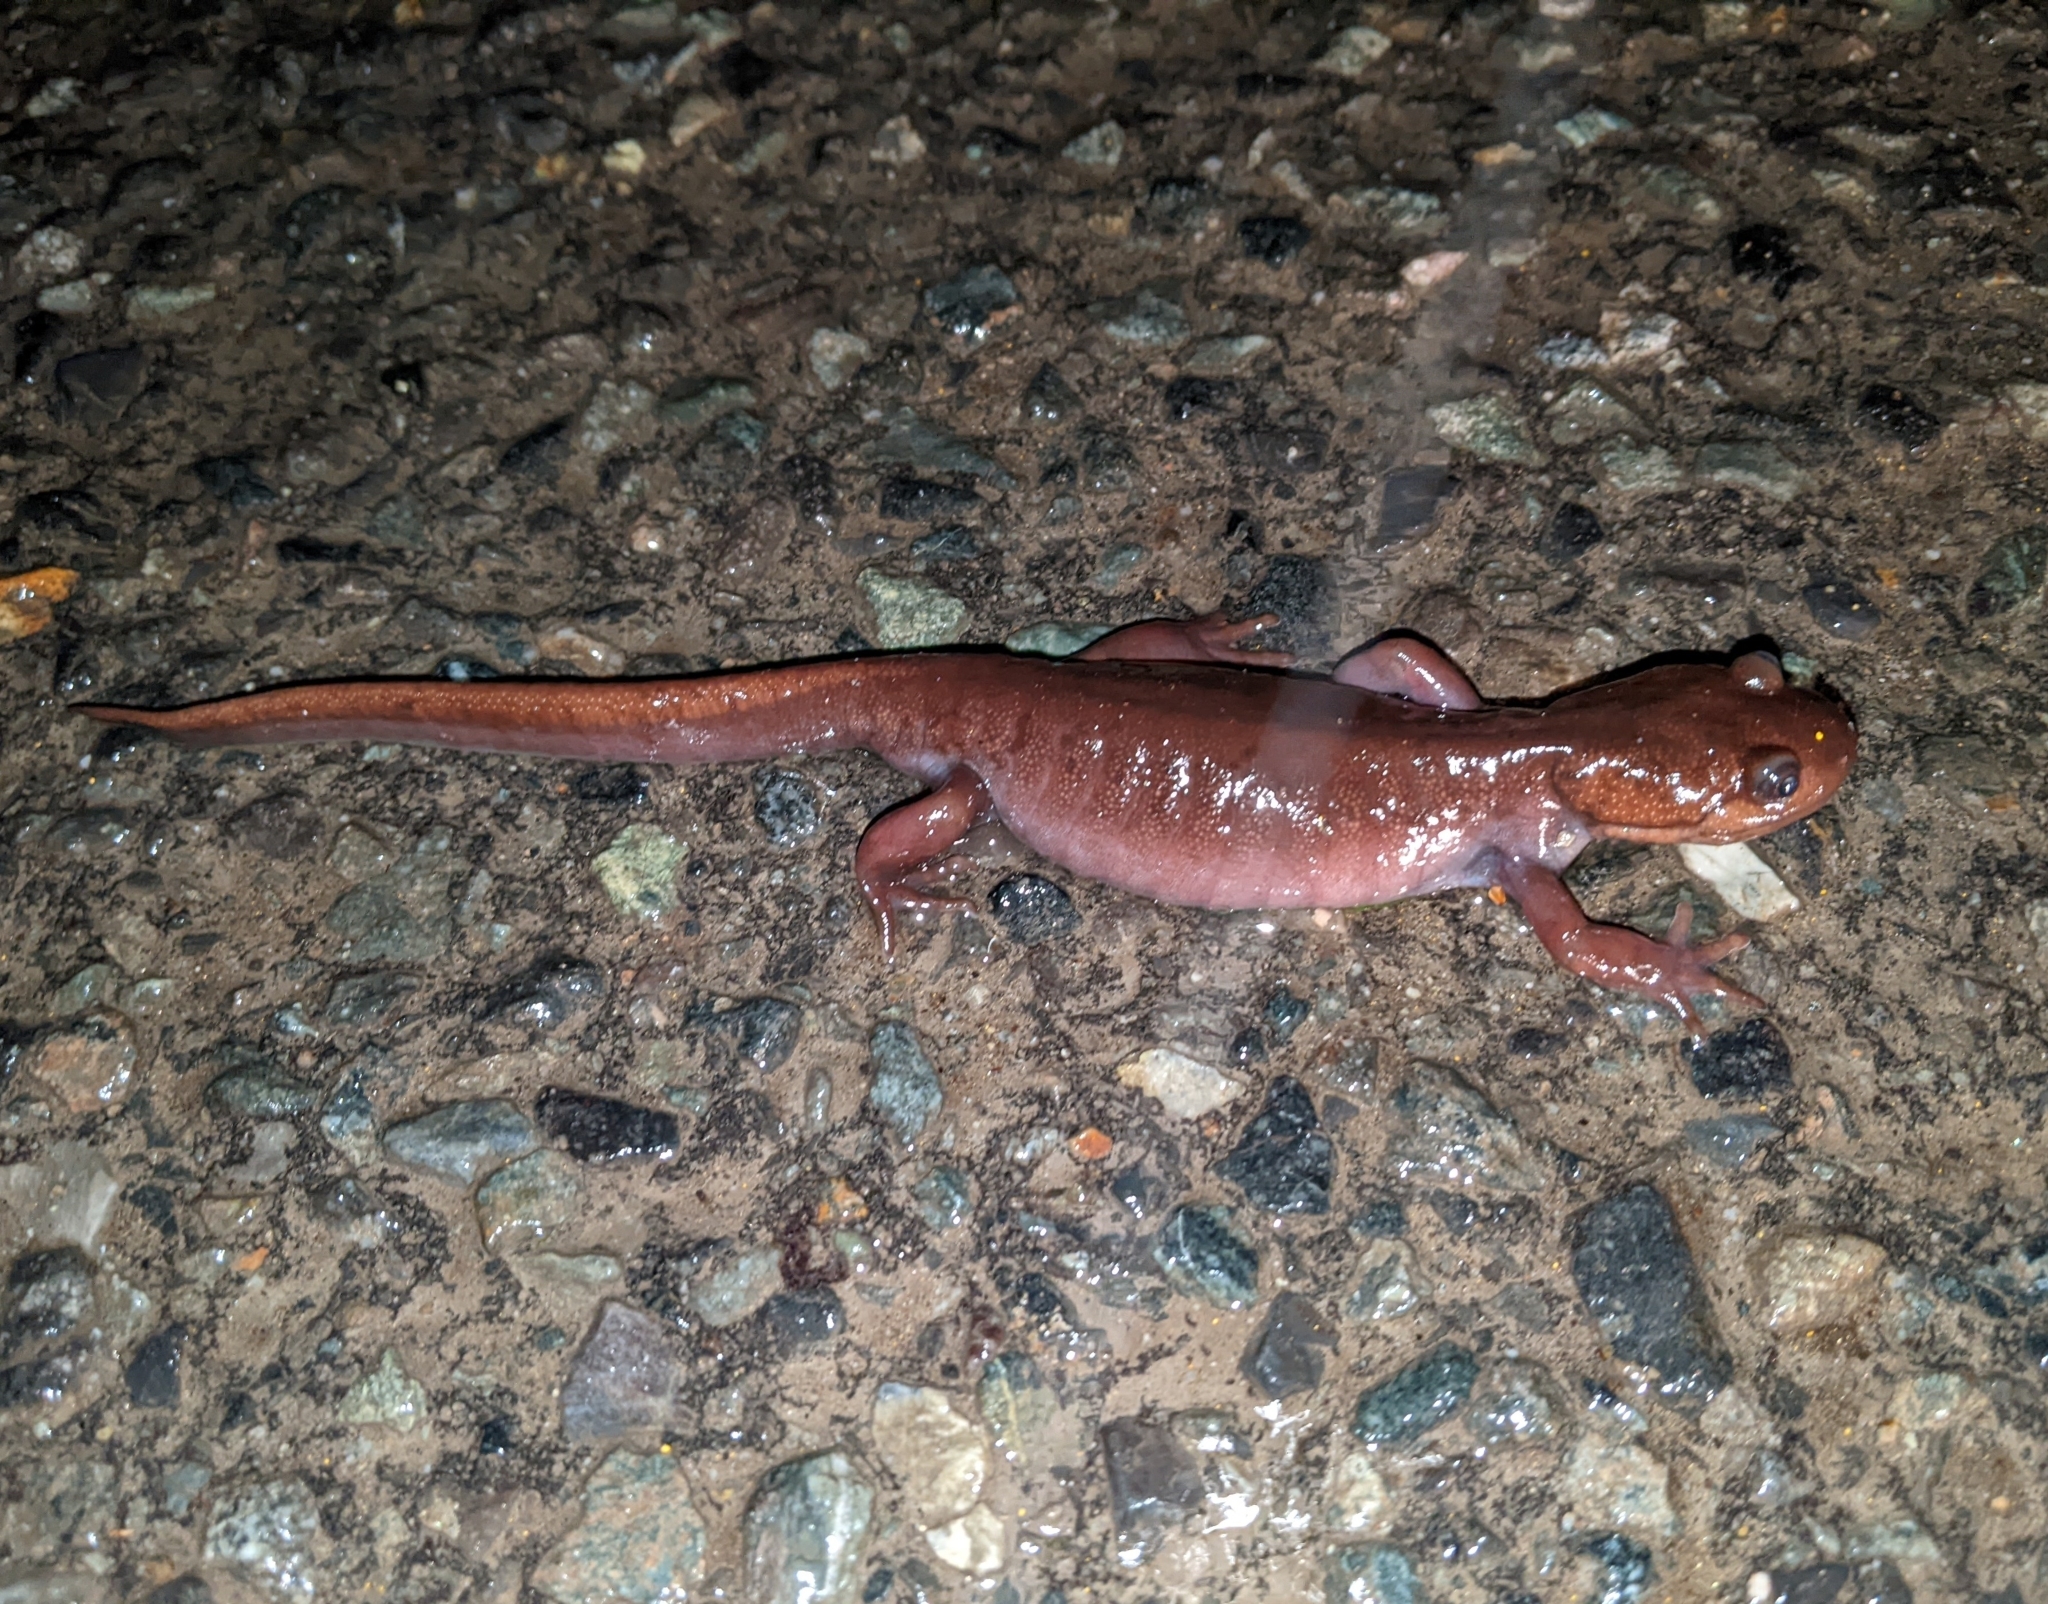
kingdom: Animalia
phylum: Chordata
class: Amphibia
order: Caudata
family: Ambystomatidae
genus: Ambystoma
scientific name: Ambystoma gracile
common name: Northwestern salamander
